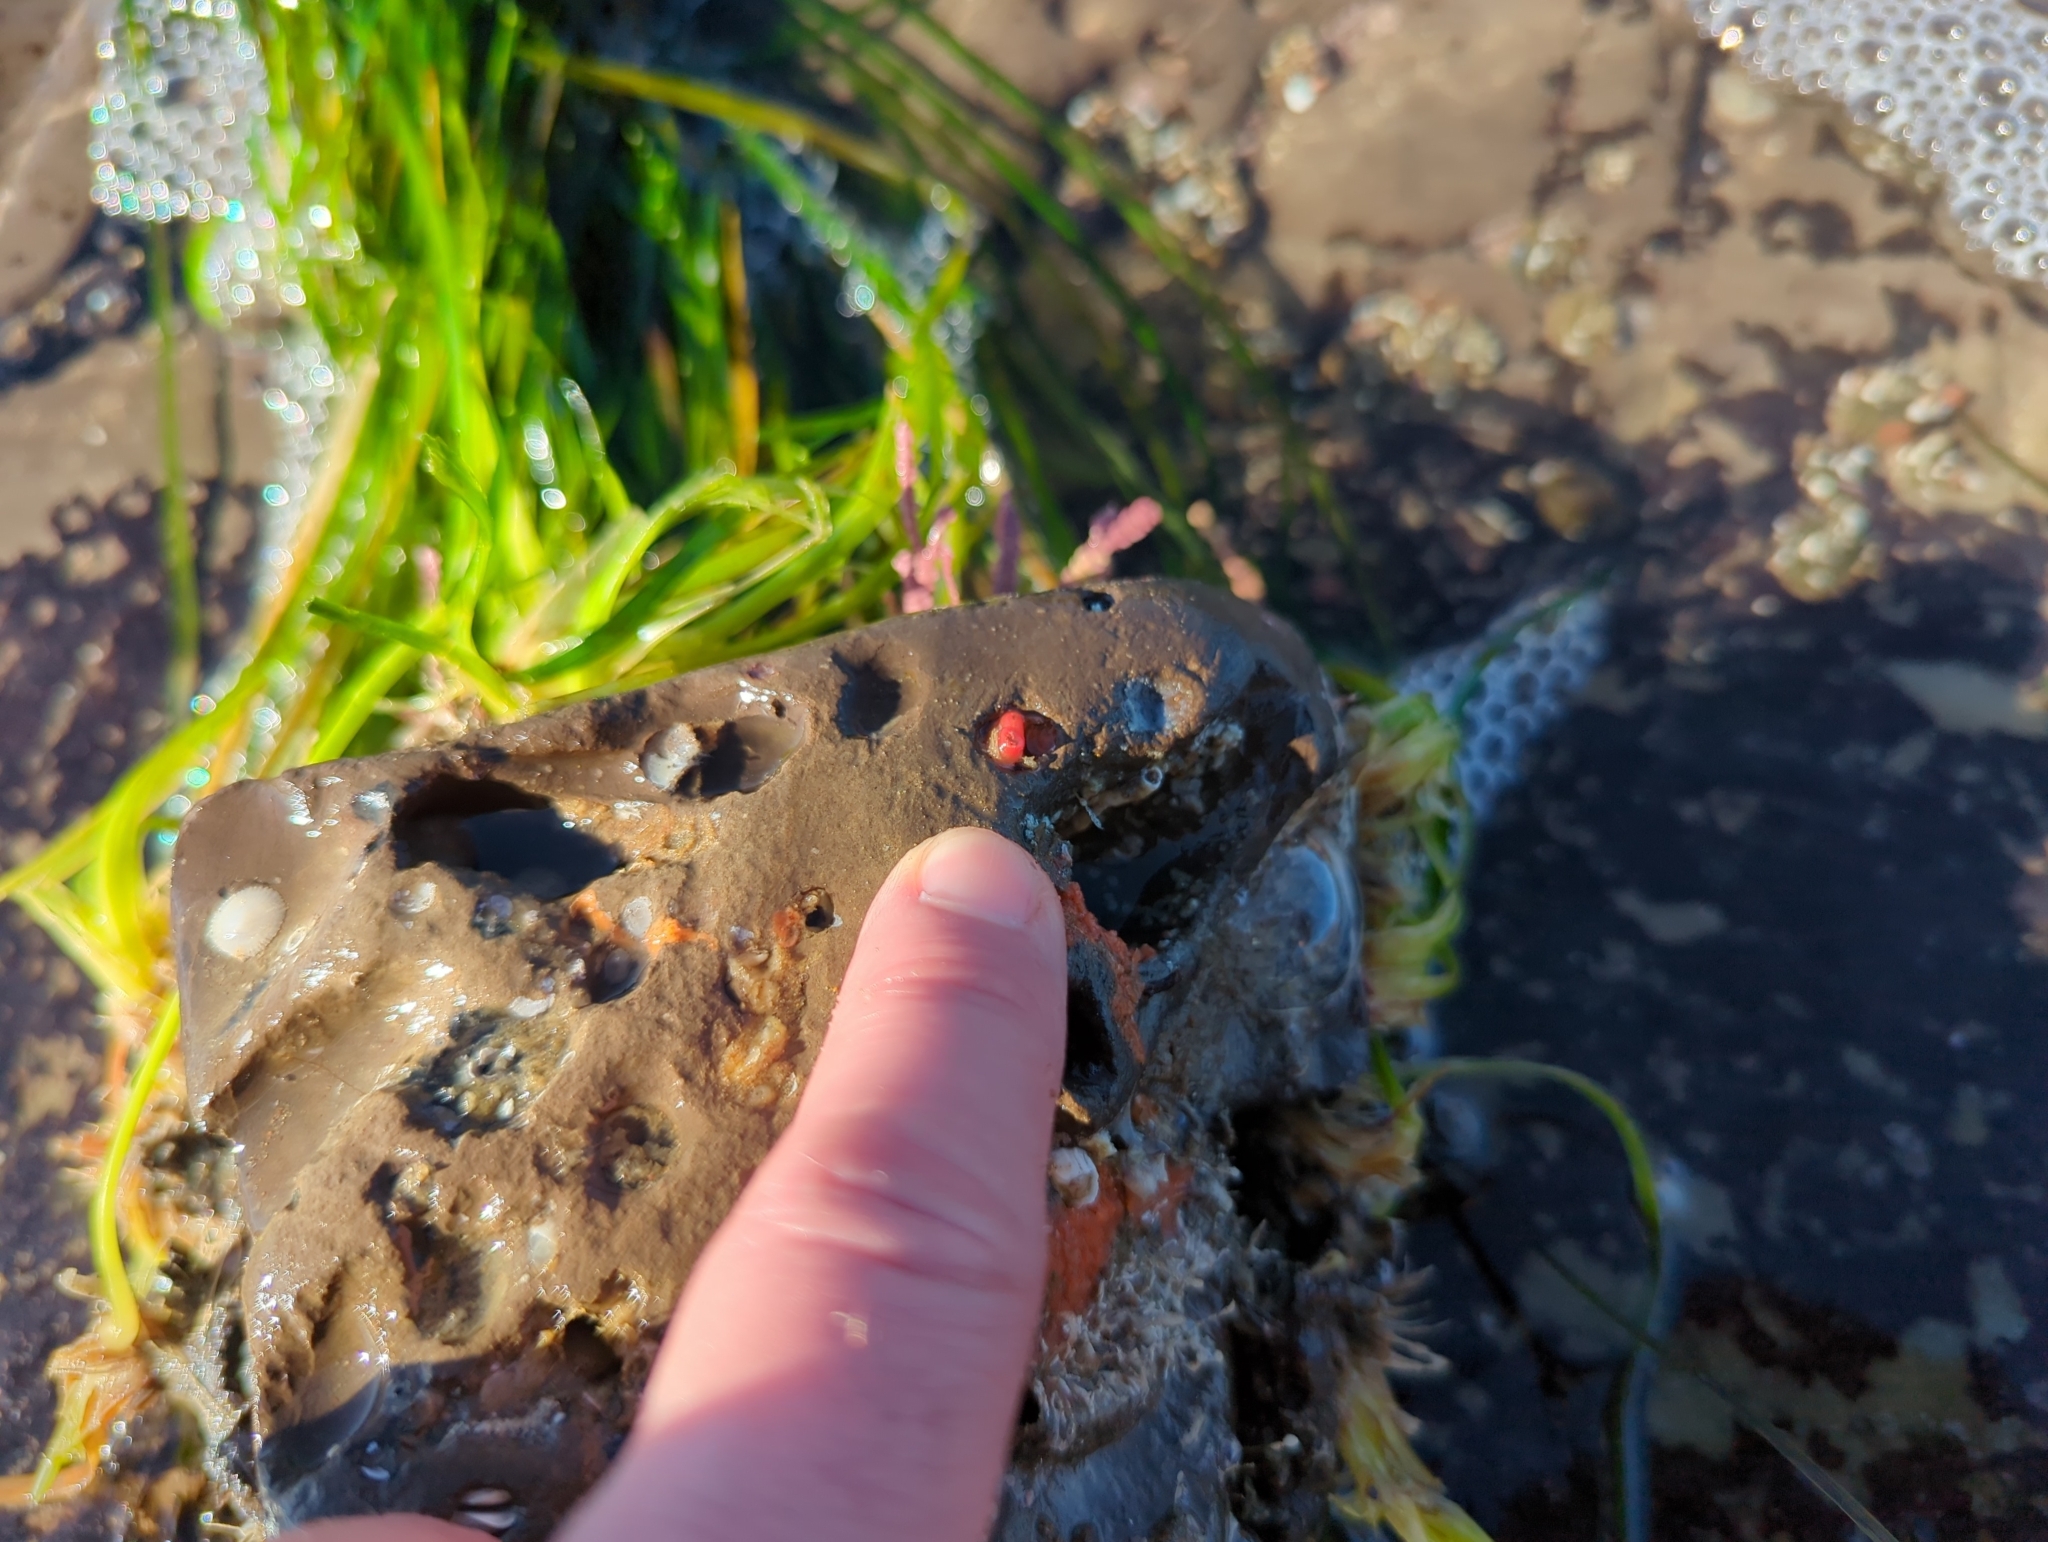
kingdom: Animalia
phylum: Mollusca
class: Bivalvia
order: Adapedonta
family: Hiatellidae
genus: Hiatella
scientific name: Hiatella arctica
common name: Arctic hiatella
